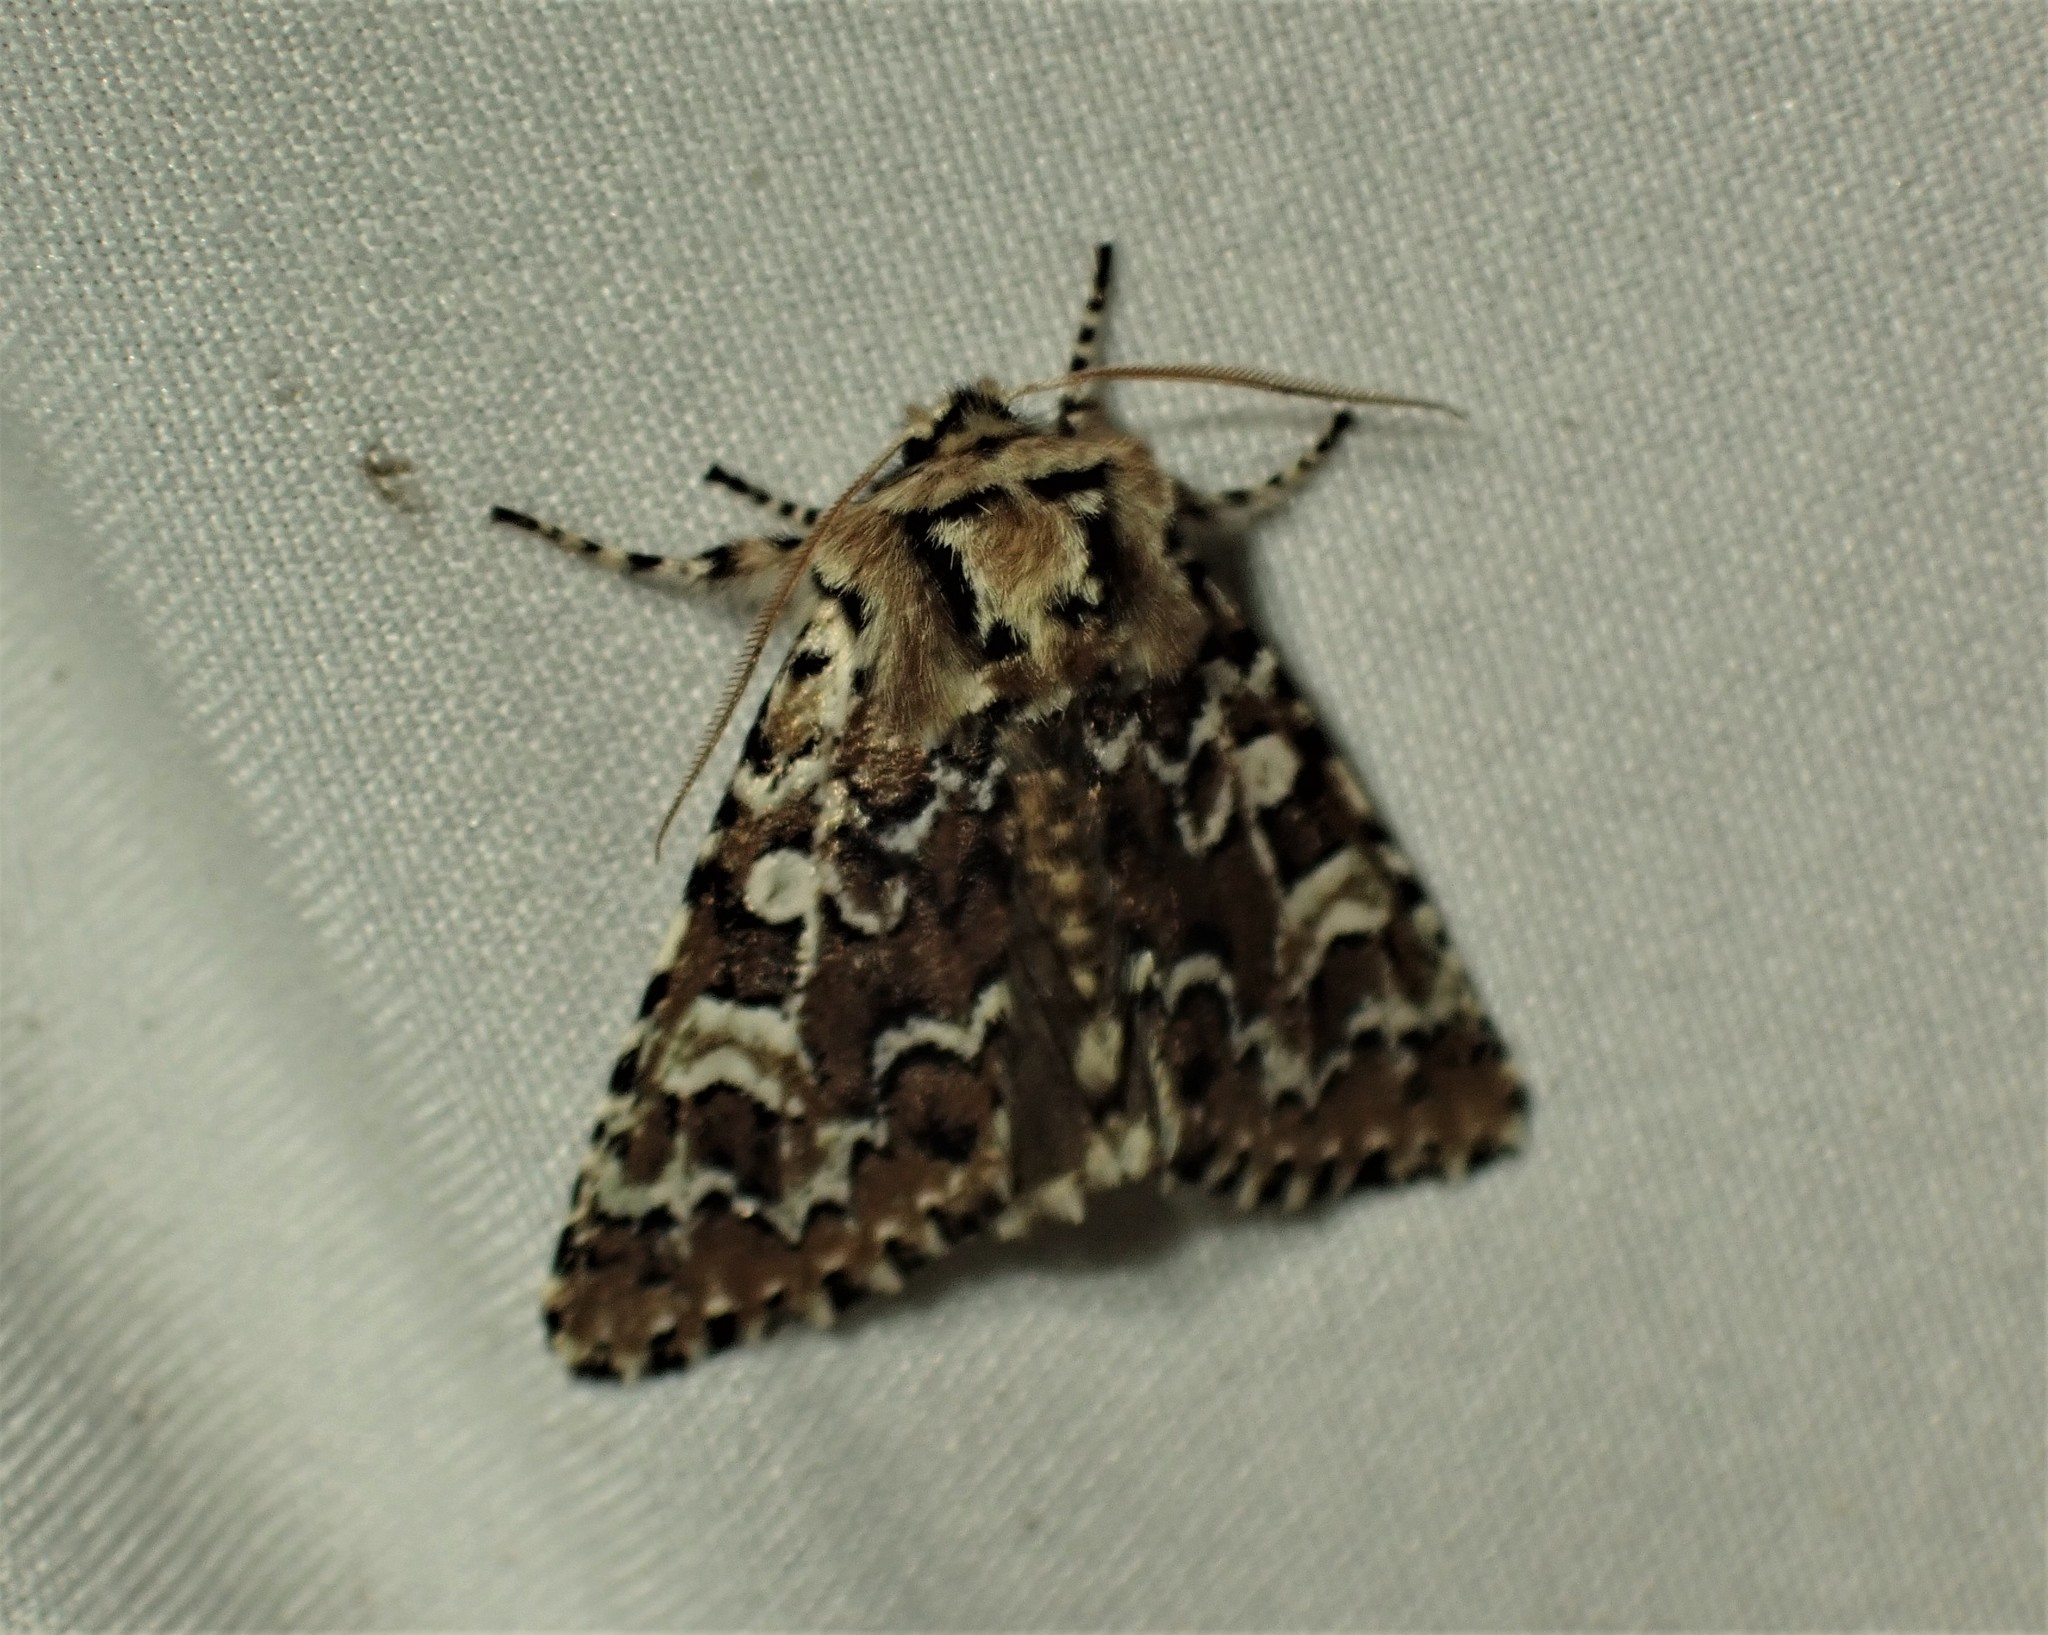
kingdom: Animalia
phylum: Arthropoda
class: Insecta
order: Lepidoptera
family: Noctuidae
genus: Feralia
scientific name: Feralia jocosa
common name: Joker
